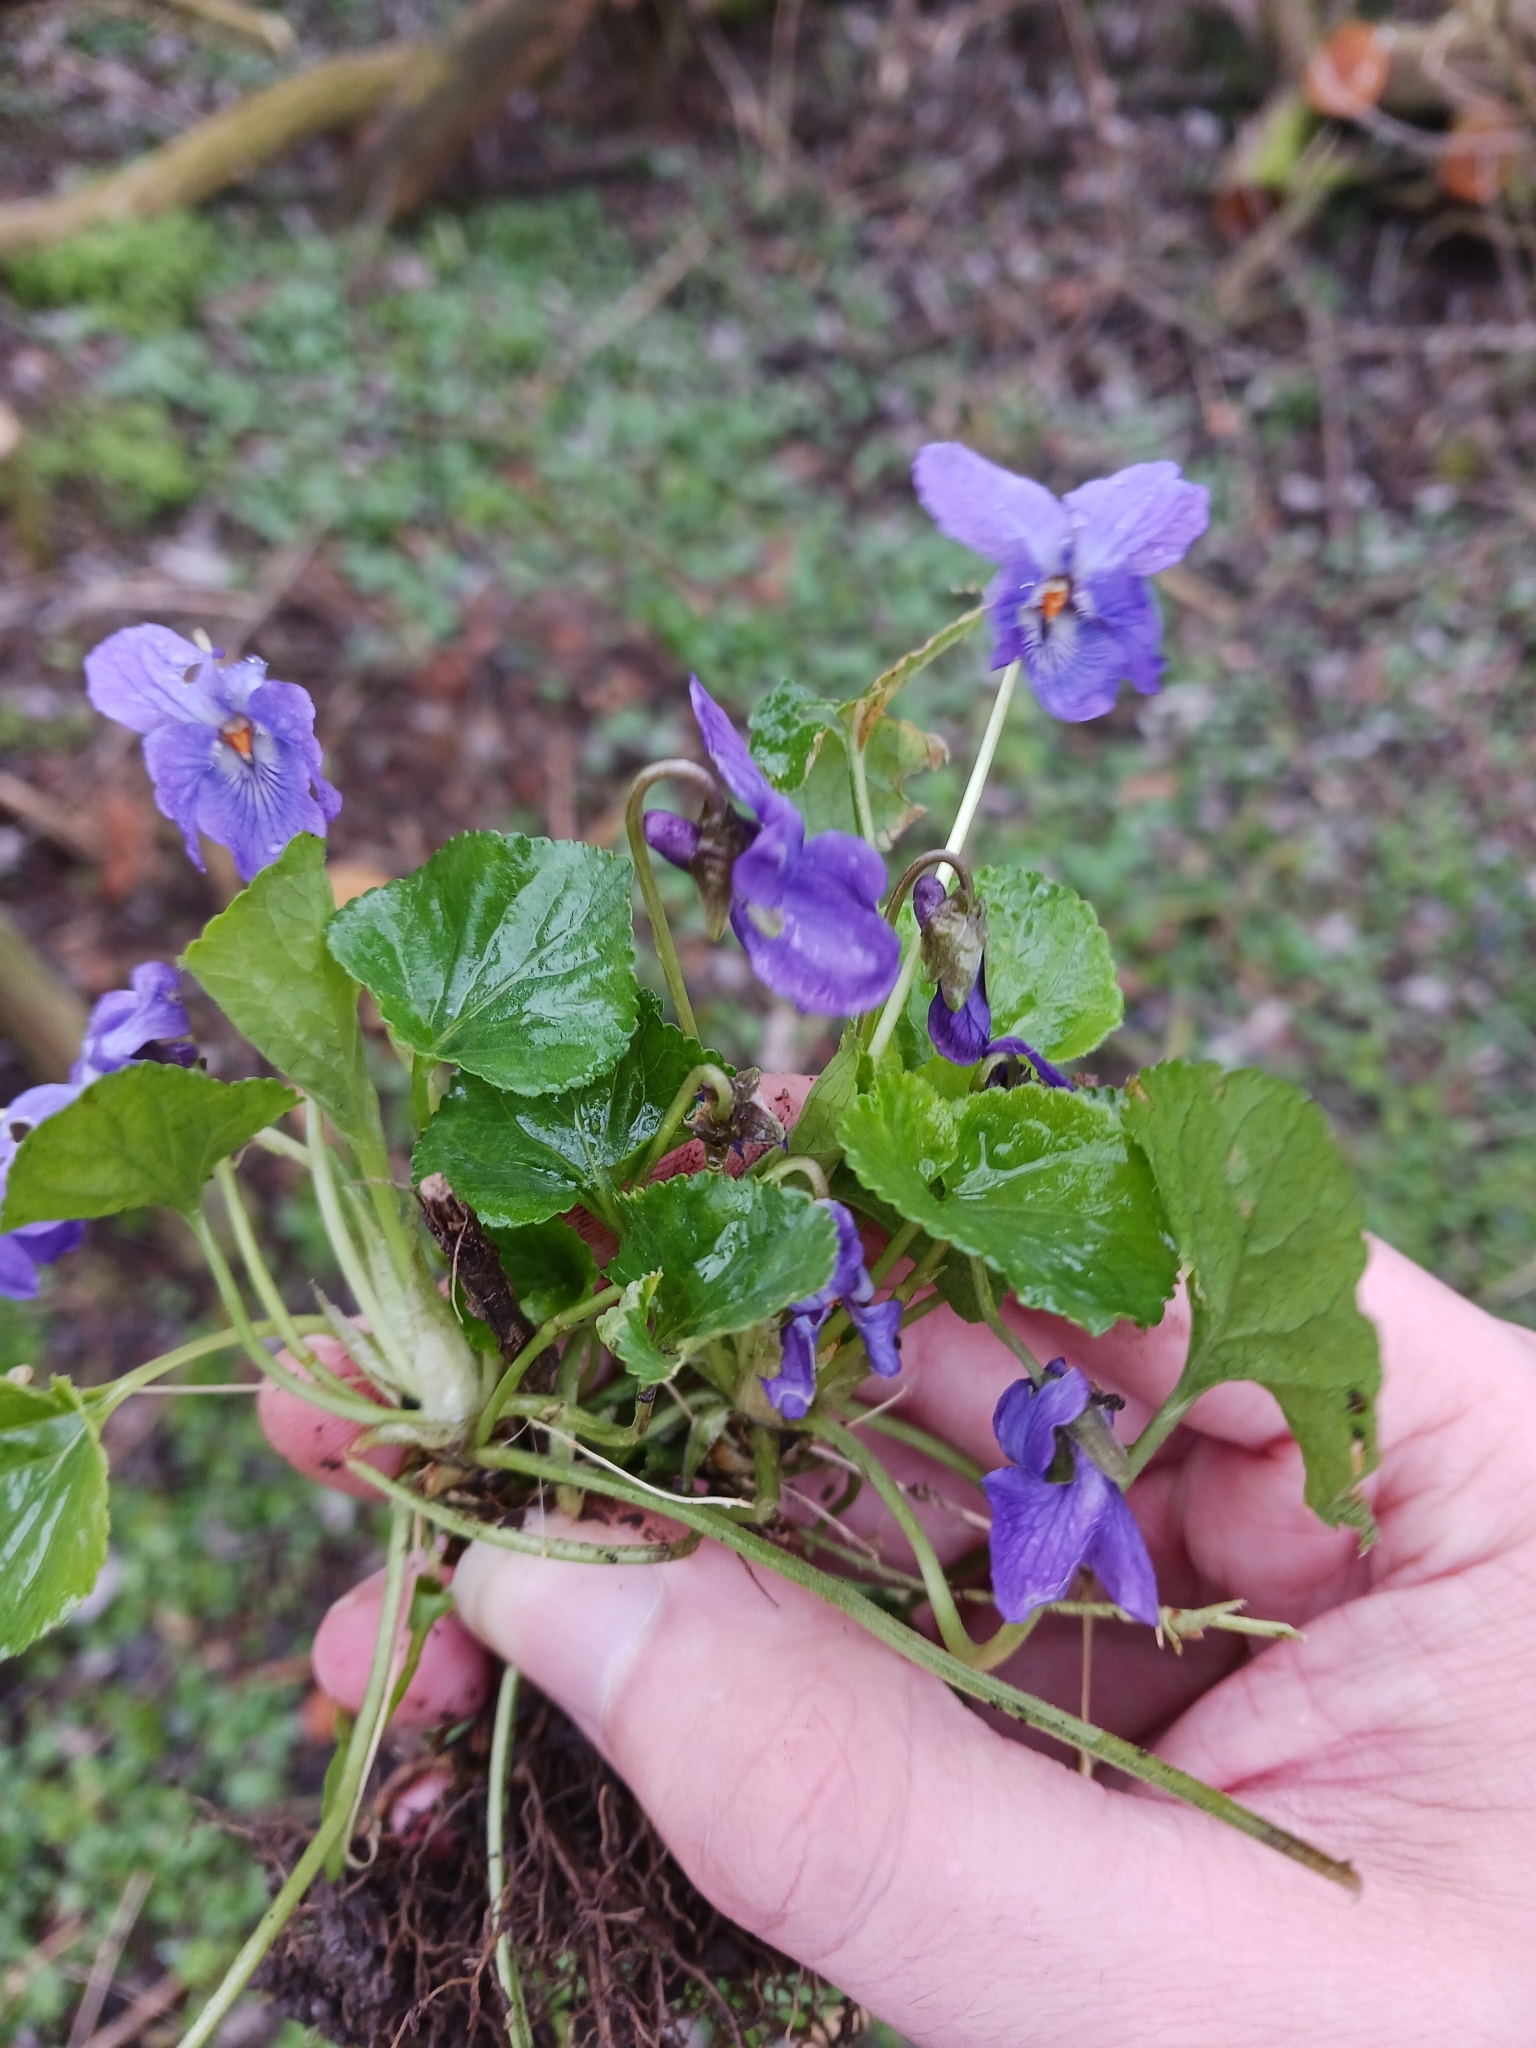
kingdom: Plantae
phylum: Tracheophyta
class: Magnoliopsida
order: Malpighiales
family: Violaceae
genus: Viola
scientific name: Viola odorata
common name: Sweet violet
